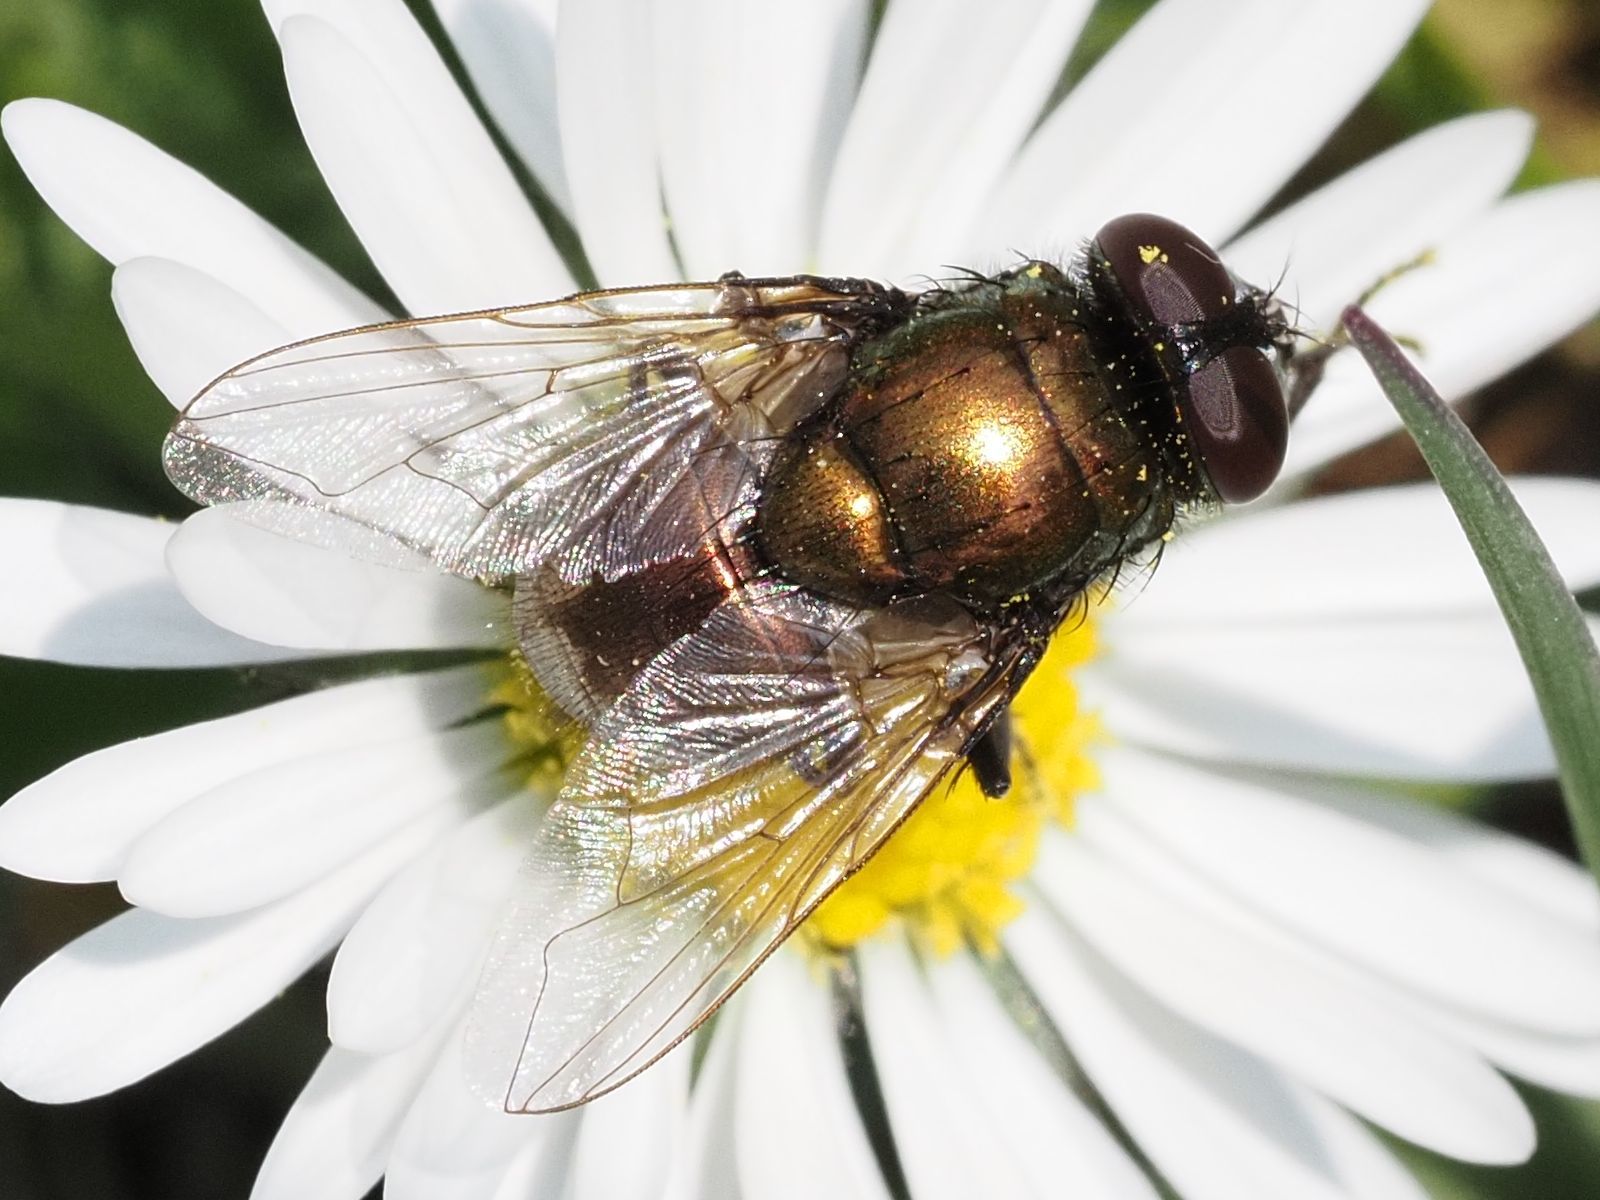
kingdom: Animalia
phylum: Arthropoda
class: Insecta
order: Diptera
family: Muscidae
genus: Neomyia
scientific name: Neomyia cornicina
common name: House fly
